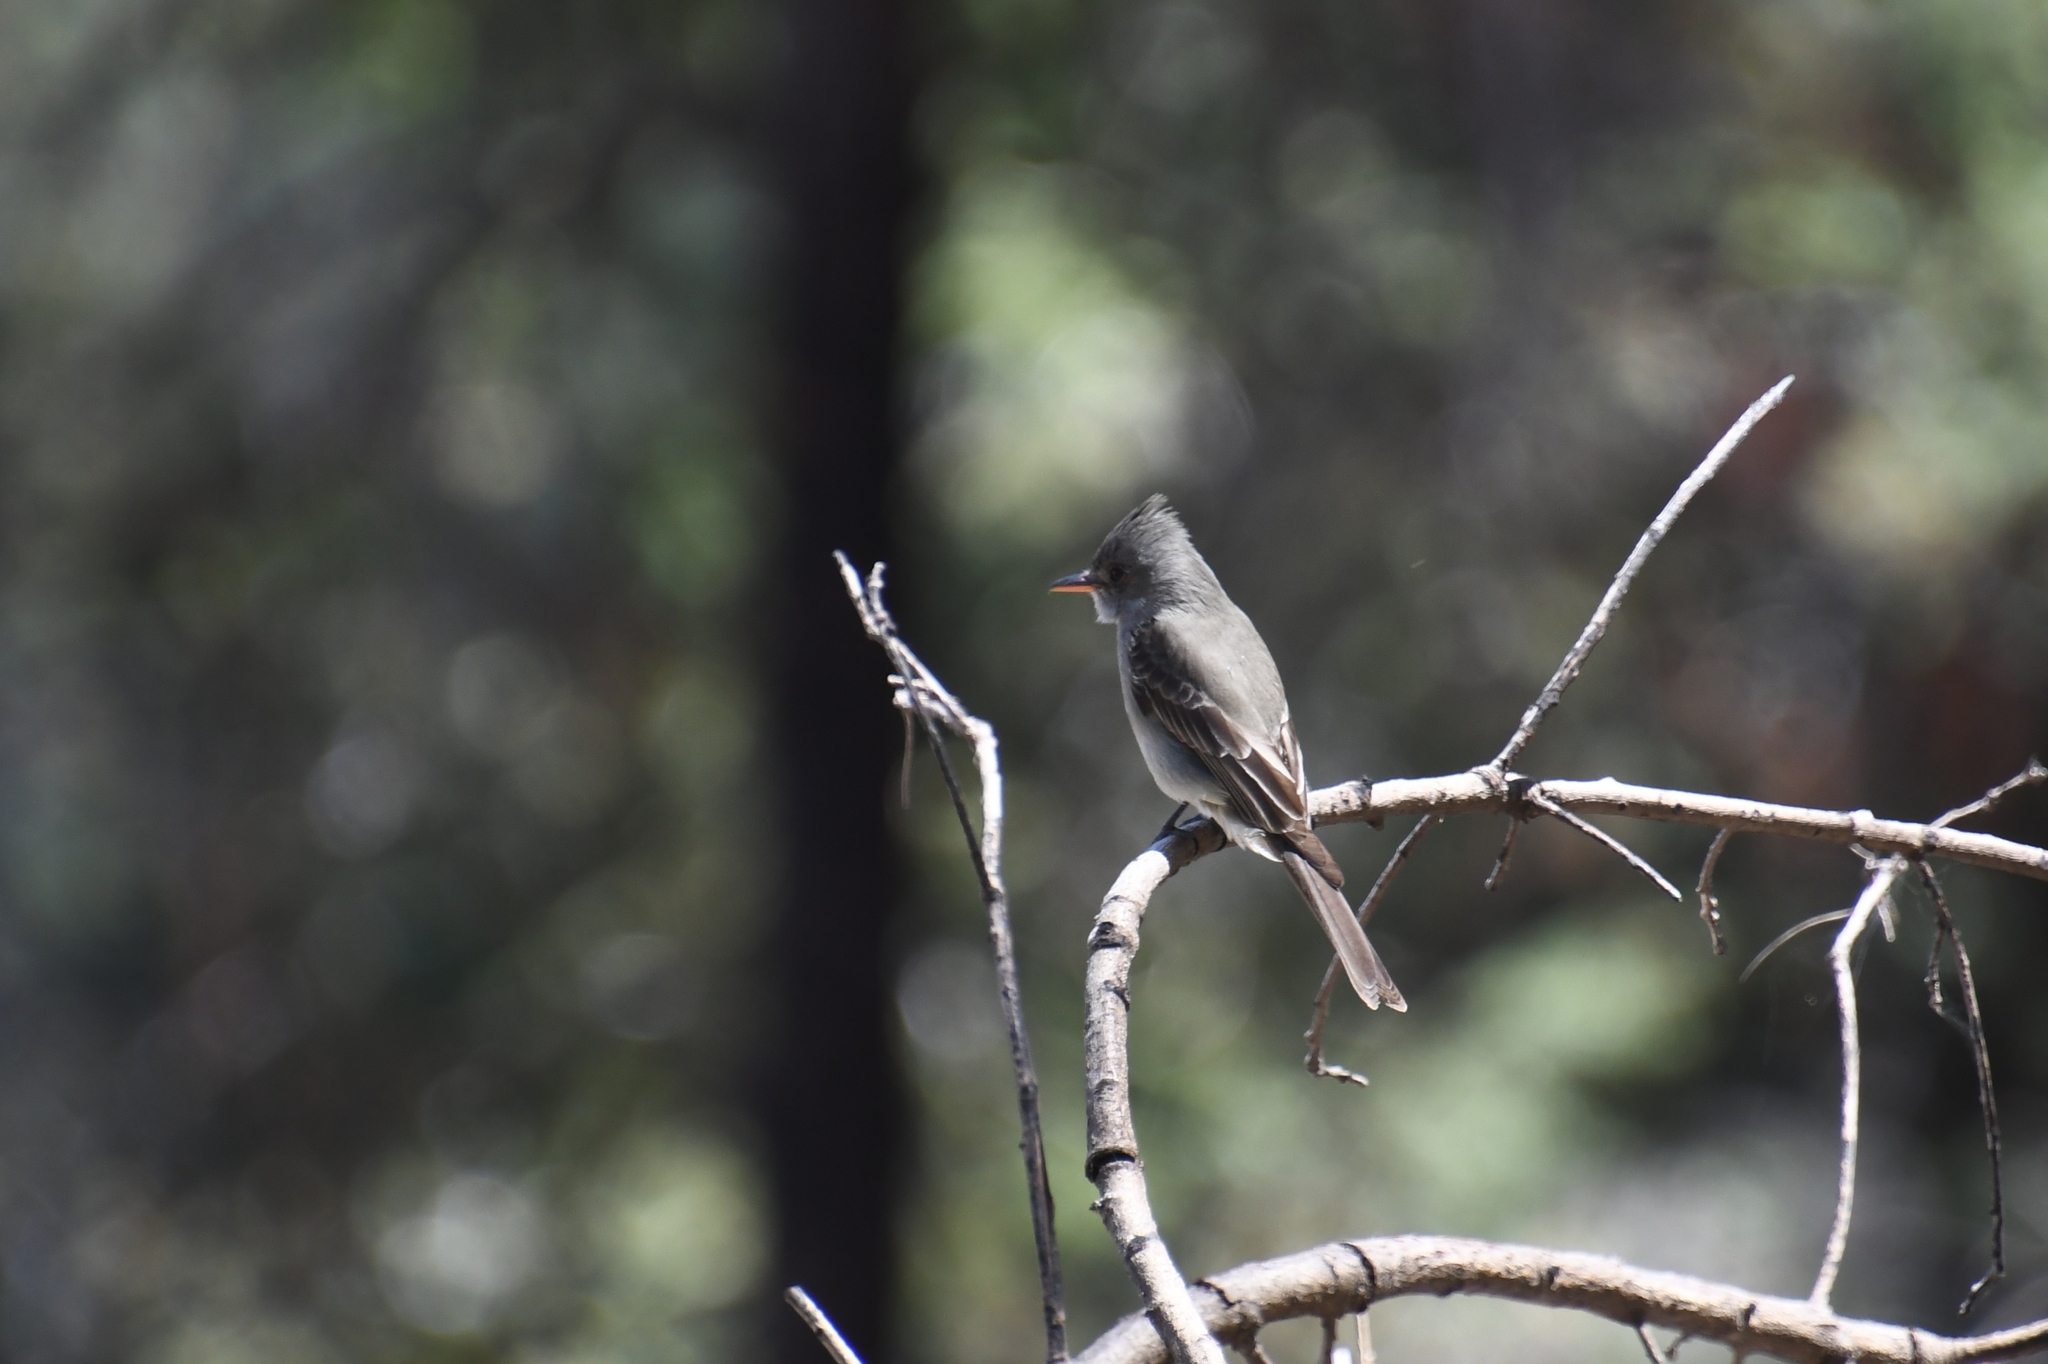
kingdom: Animalia
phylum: Chordata
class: Aves
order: Passeriformes
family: Tyrannidae
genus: Contopus
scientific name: Contopus pertinax
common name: Greater pewee
